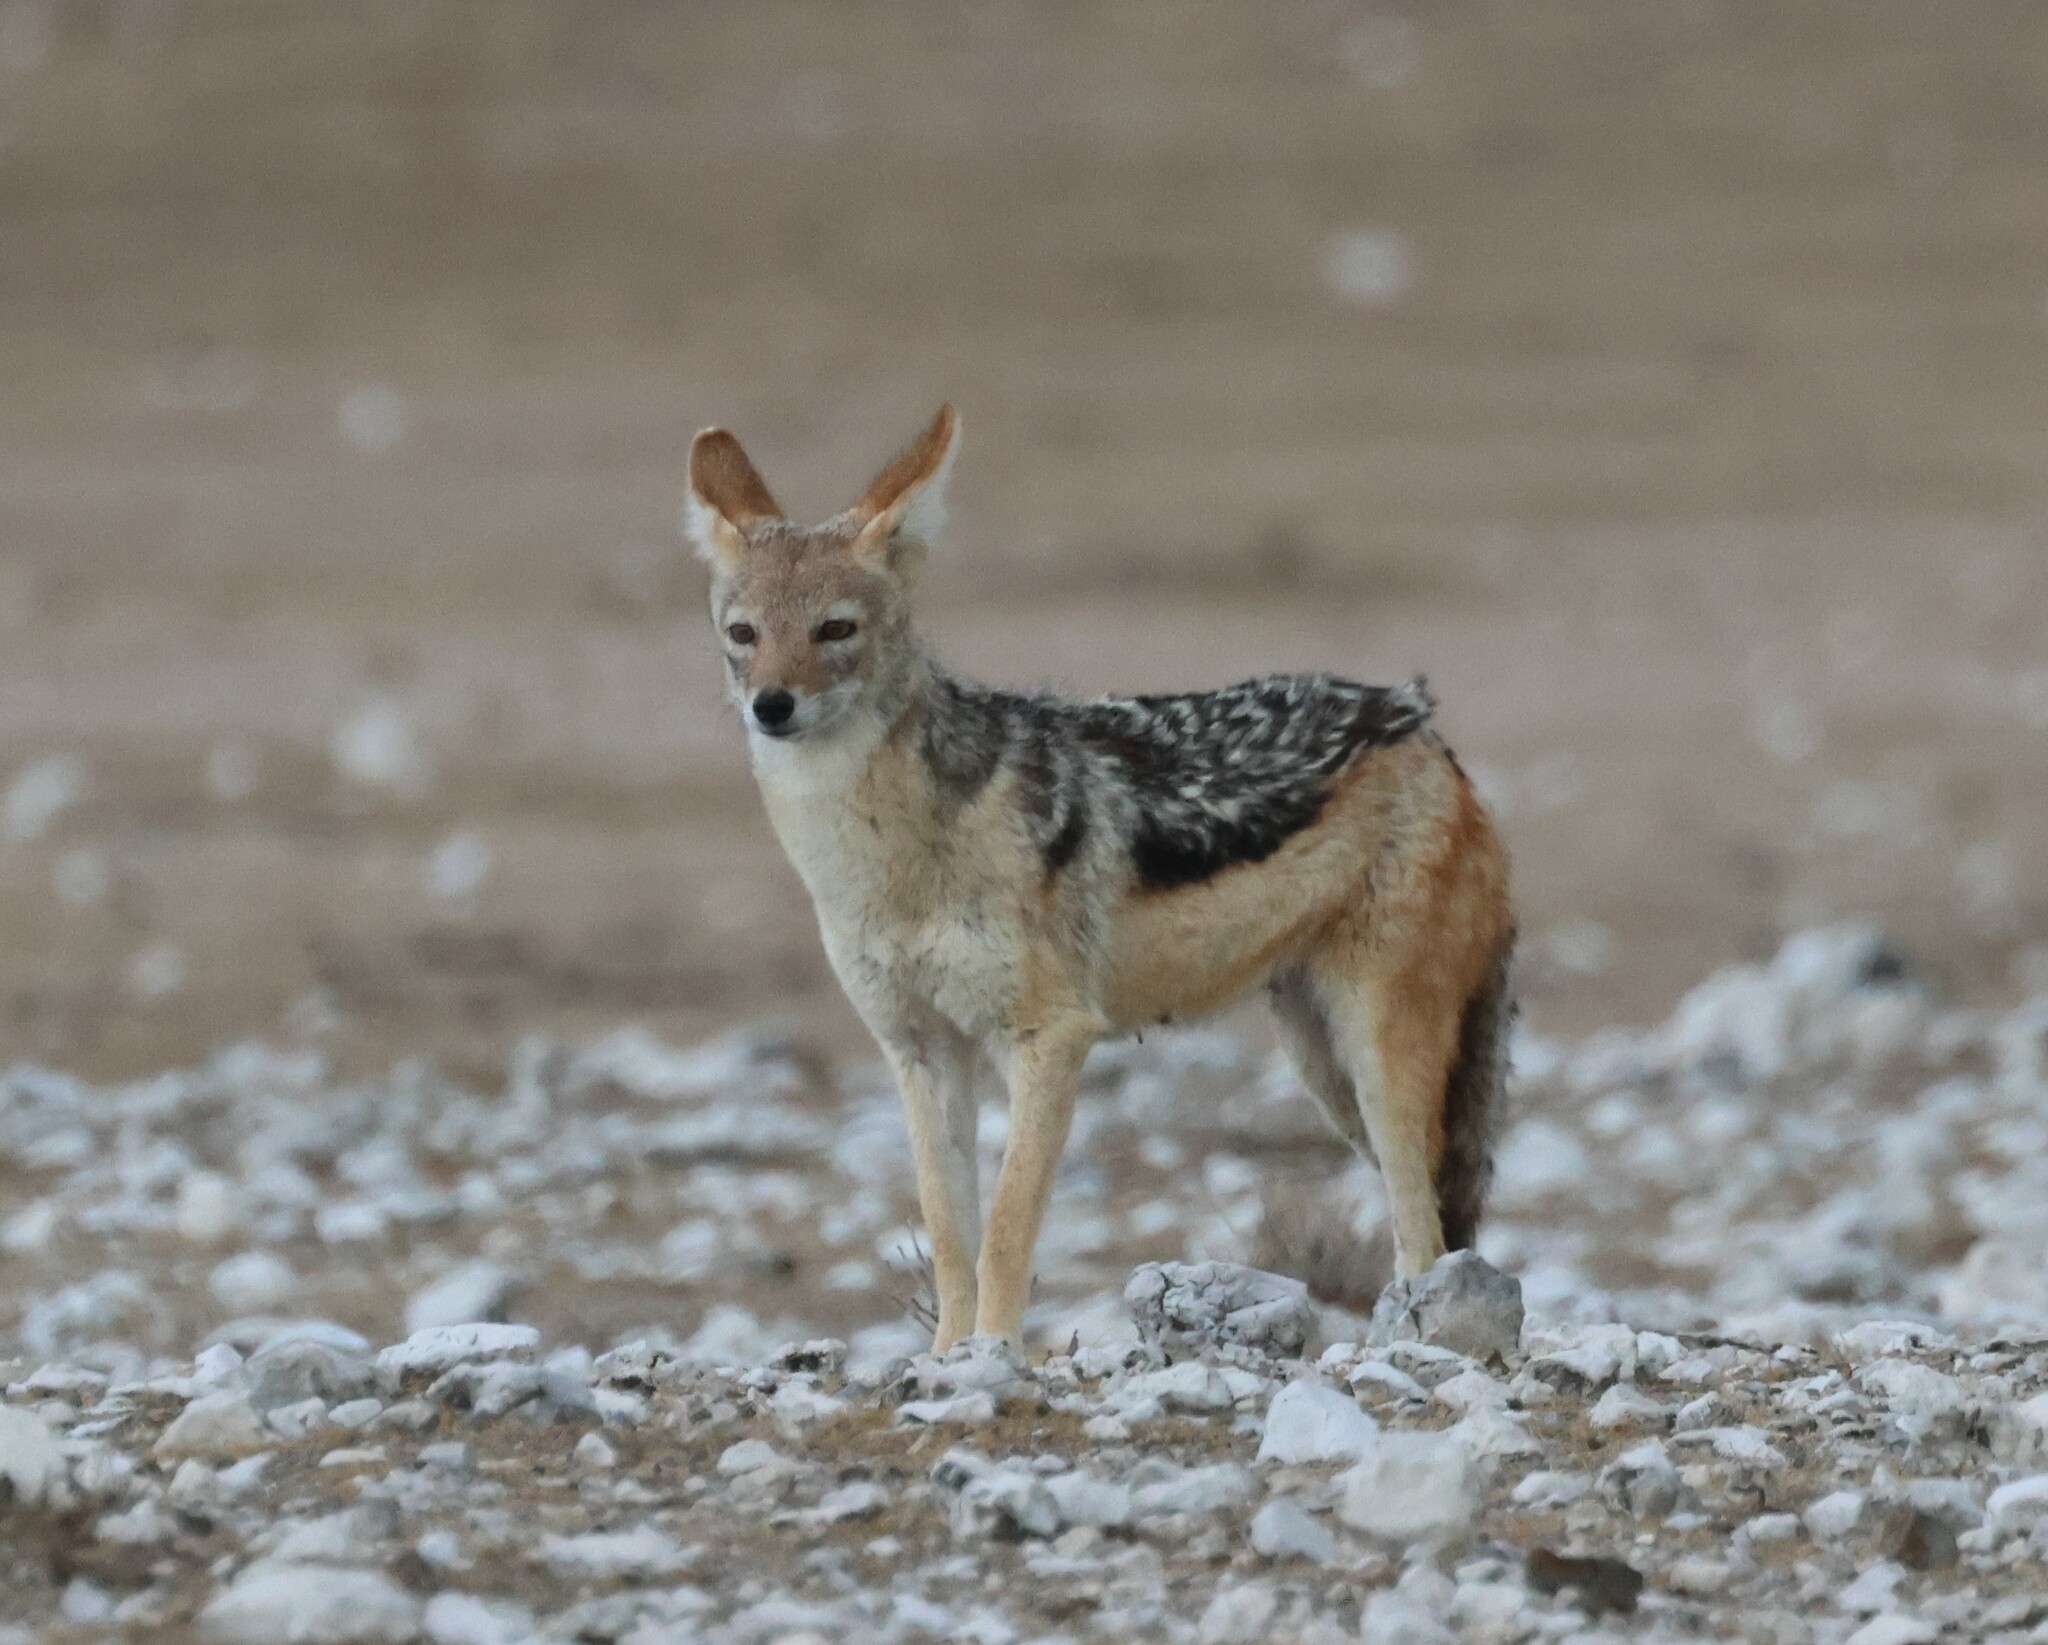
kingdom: Animalia
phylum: Chordata
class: Mammalia
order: Carnivora
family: Canidae
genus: Lupulella
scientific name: Lupulella
